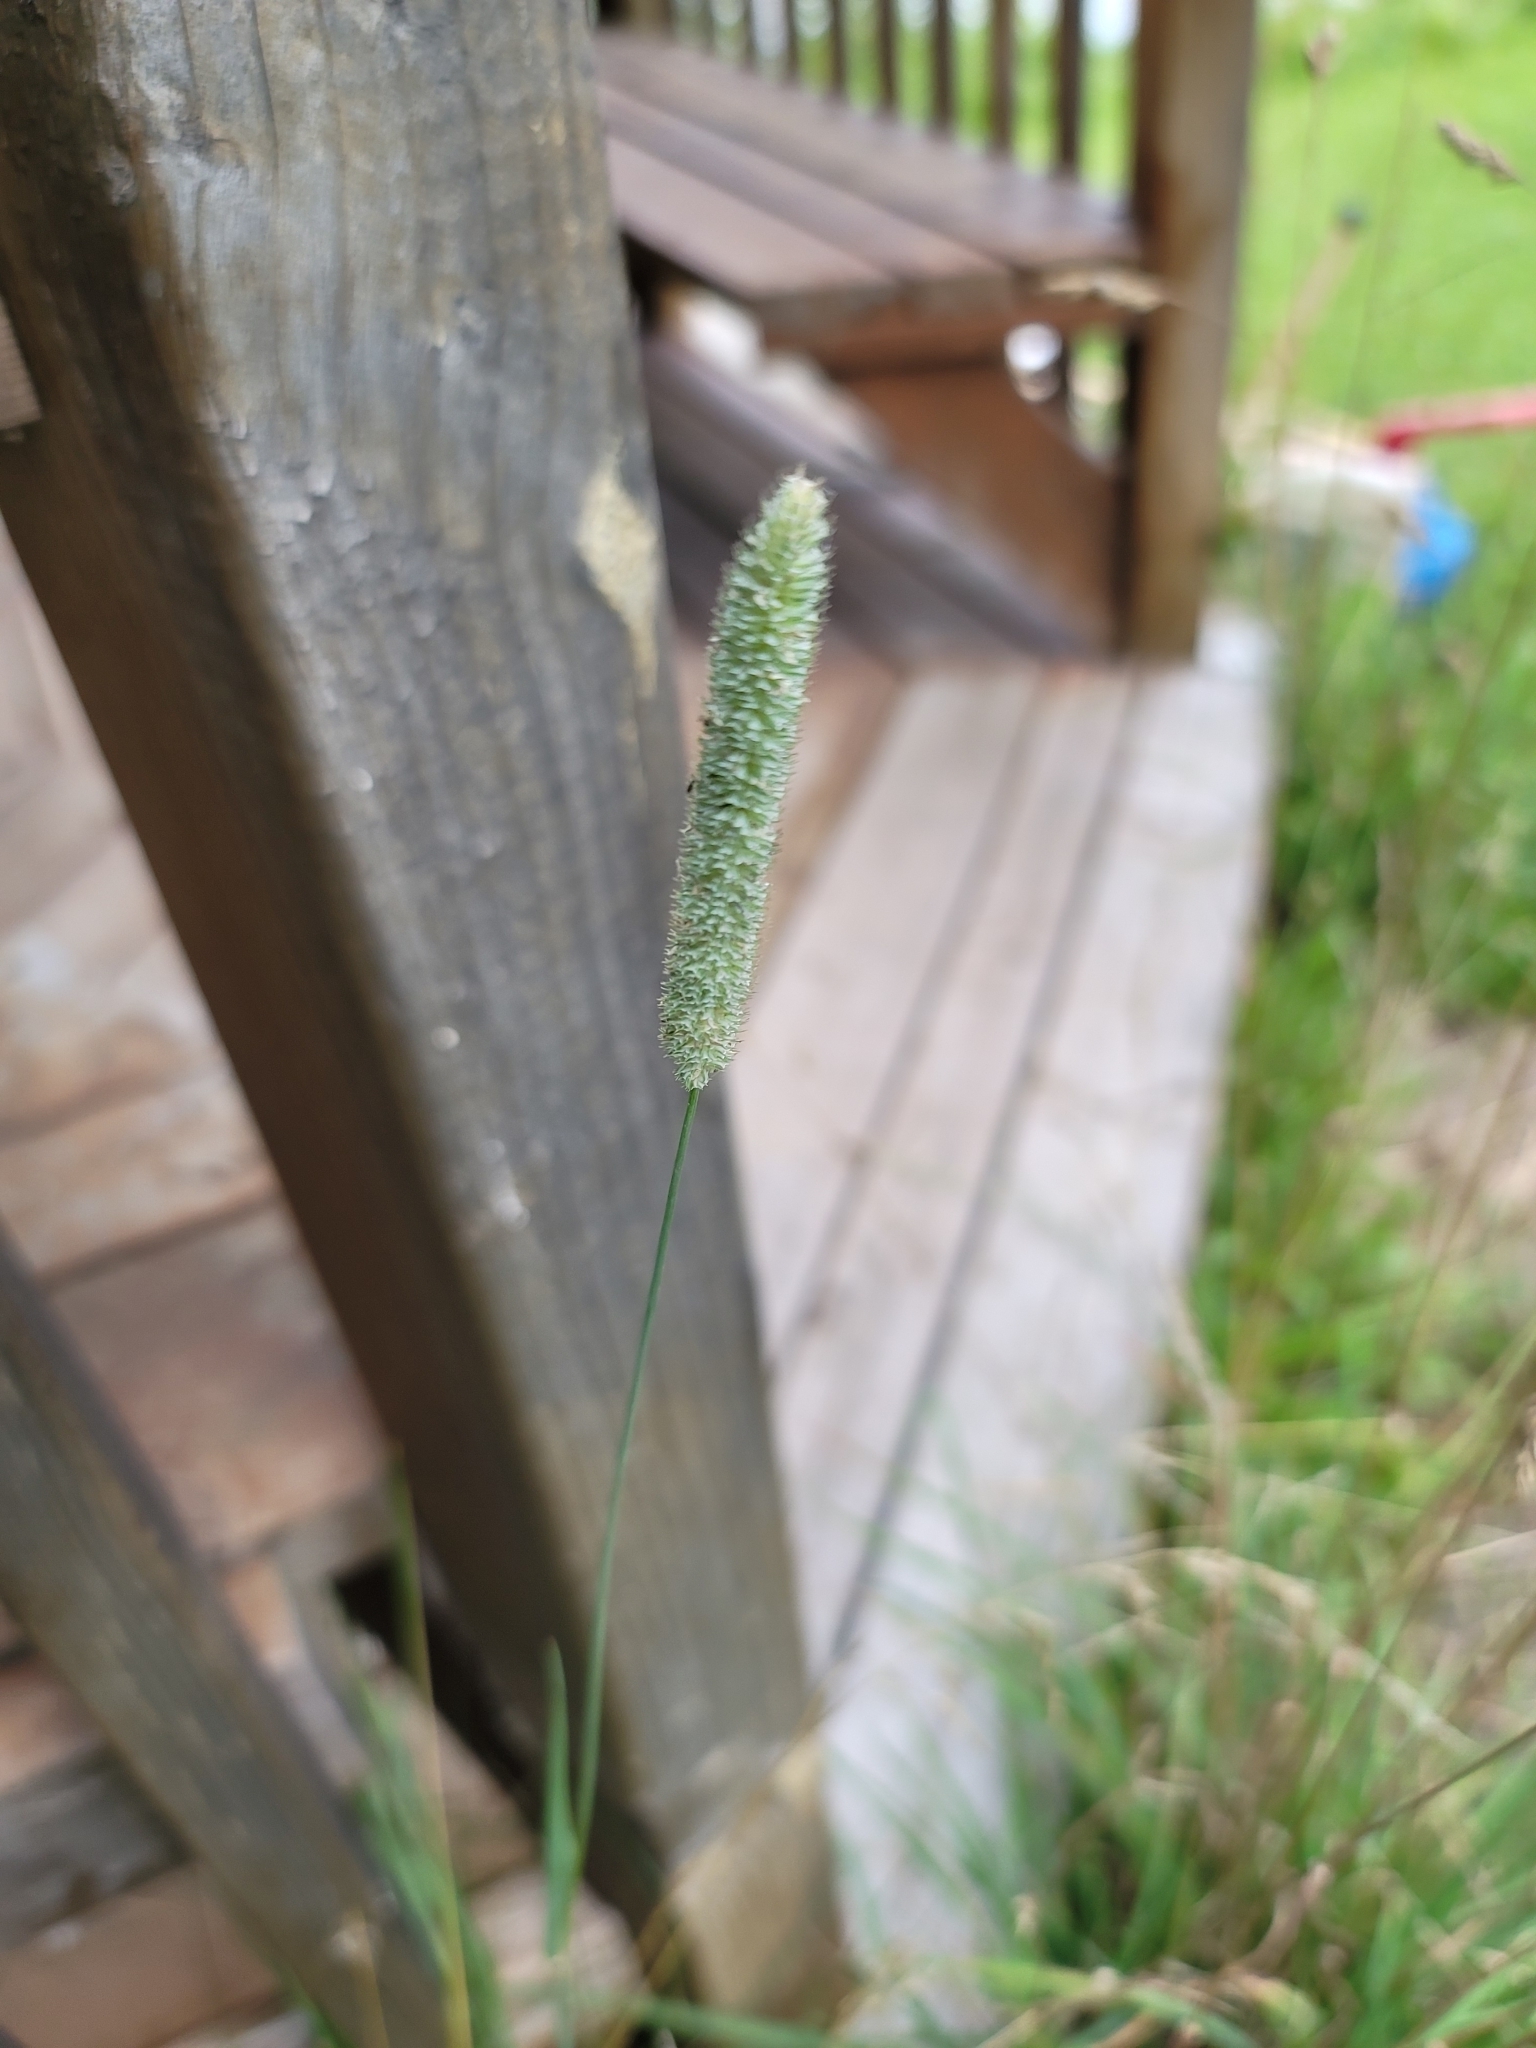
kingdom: Plantae
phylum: Tracheophyta
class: Liliopsida
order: Poales
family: Poaceae
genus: Phleum
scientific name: Phleum pratense
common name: Timothy grass
